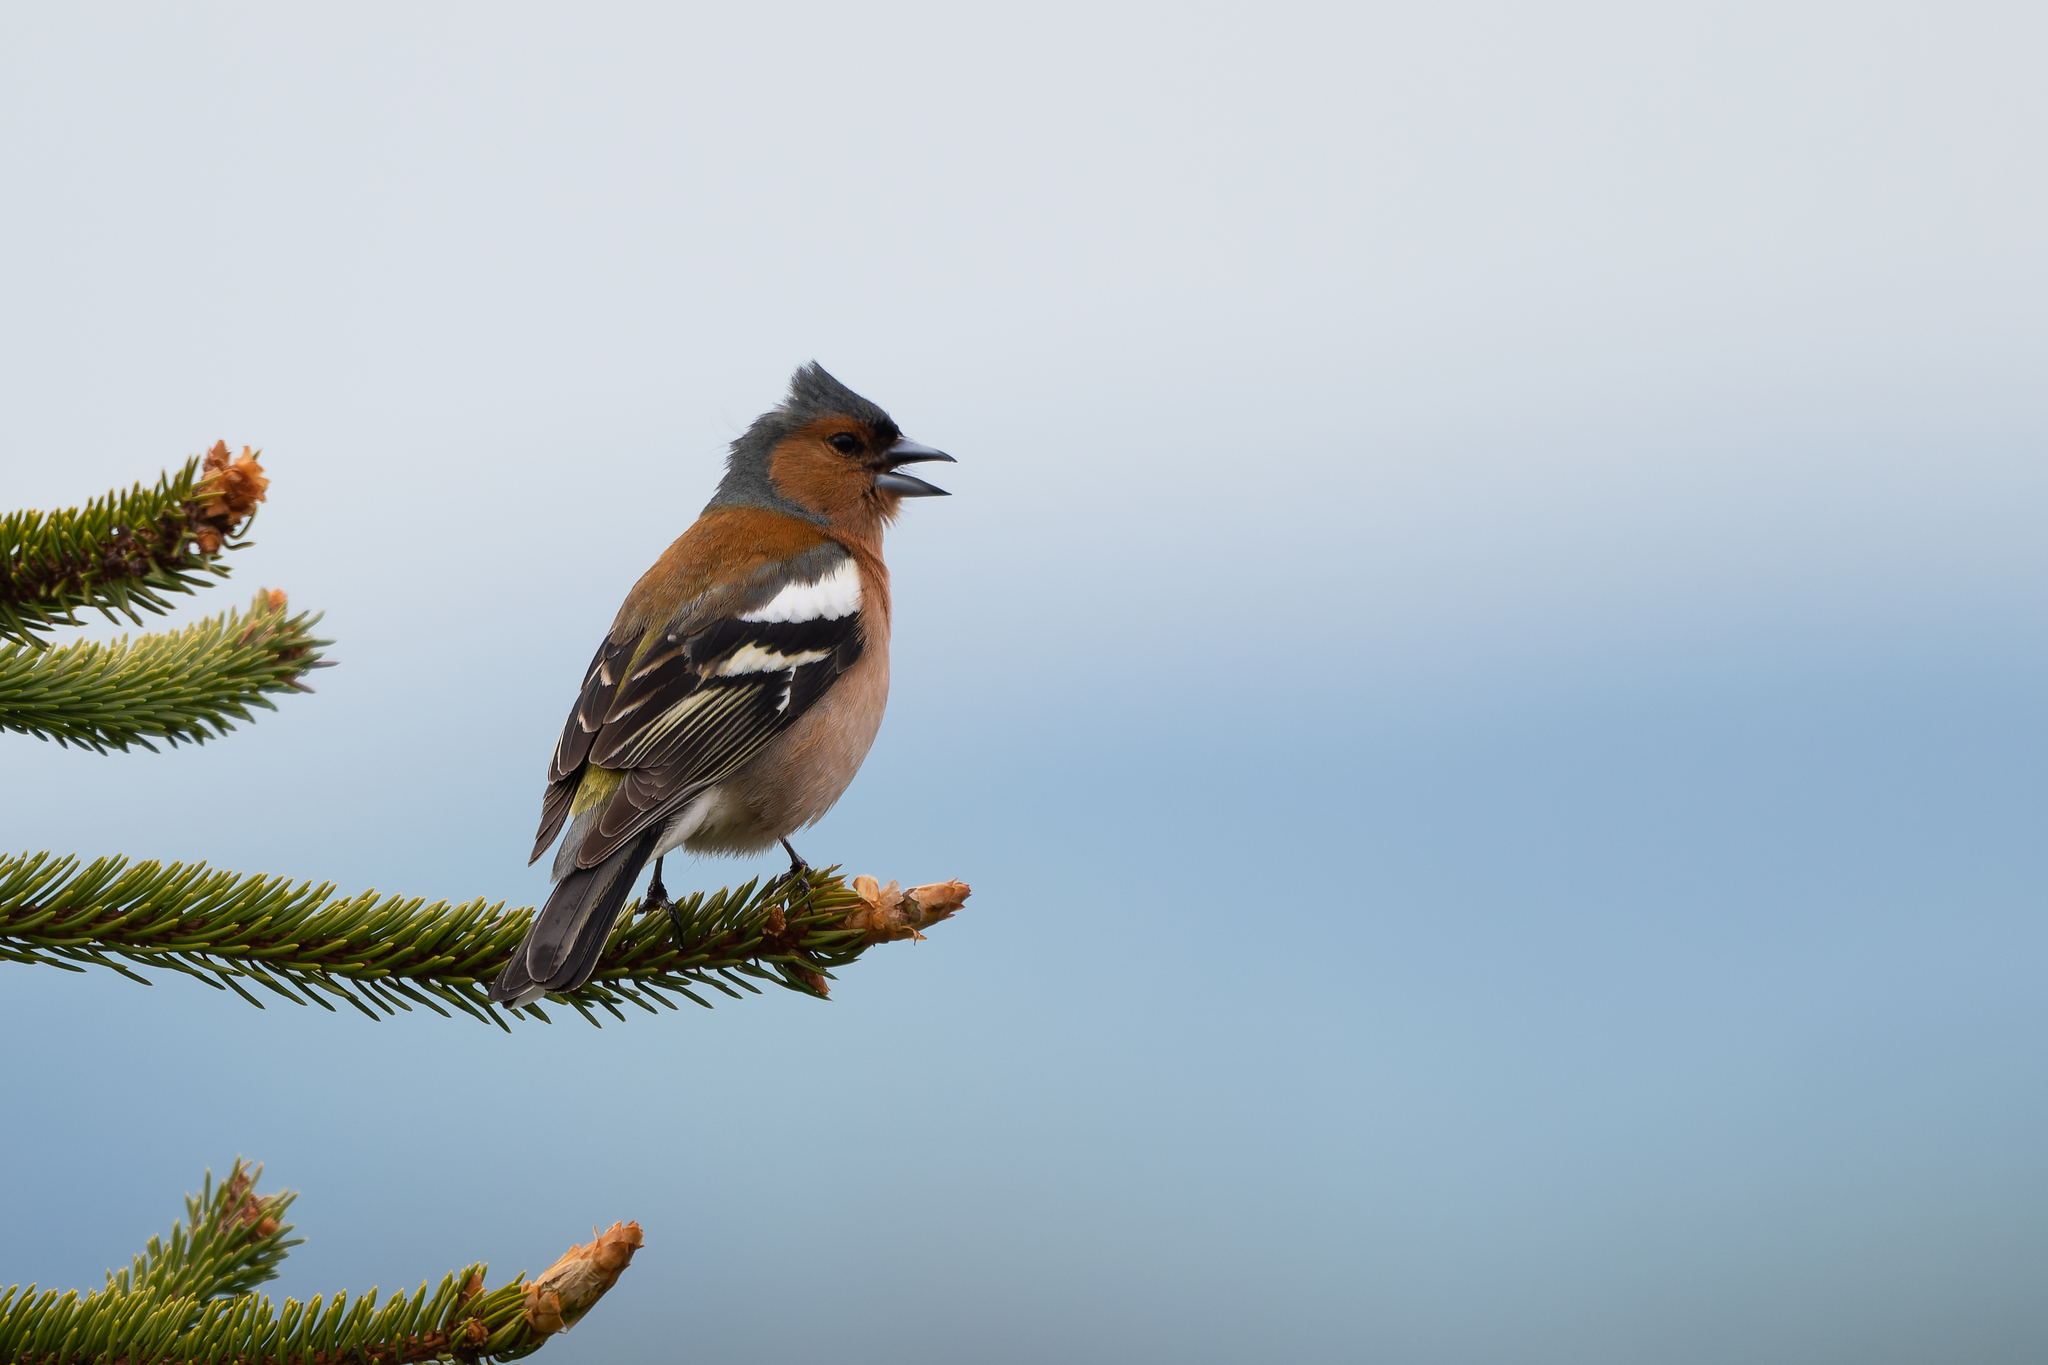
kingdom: Animalia
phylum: Chordata
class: Aves
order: Passeriformes
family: Fringillidae
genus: Fringilla
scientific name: Fringilla coelebs
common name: Common chaffinch
